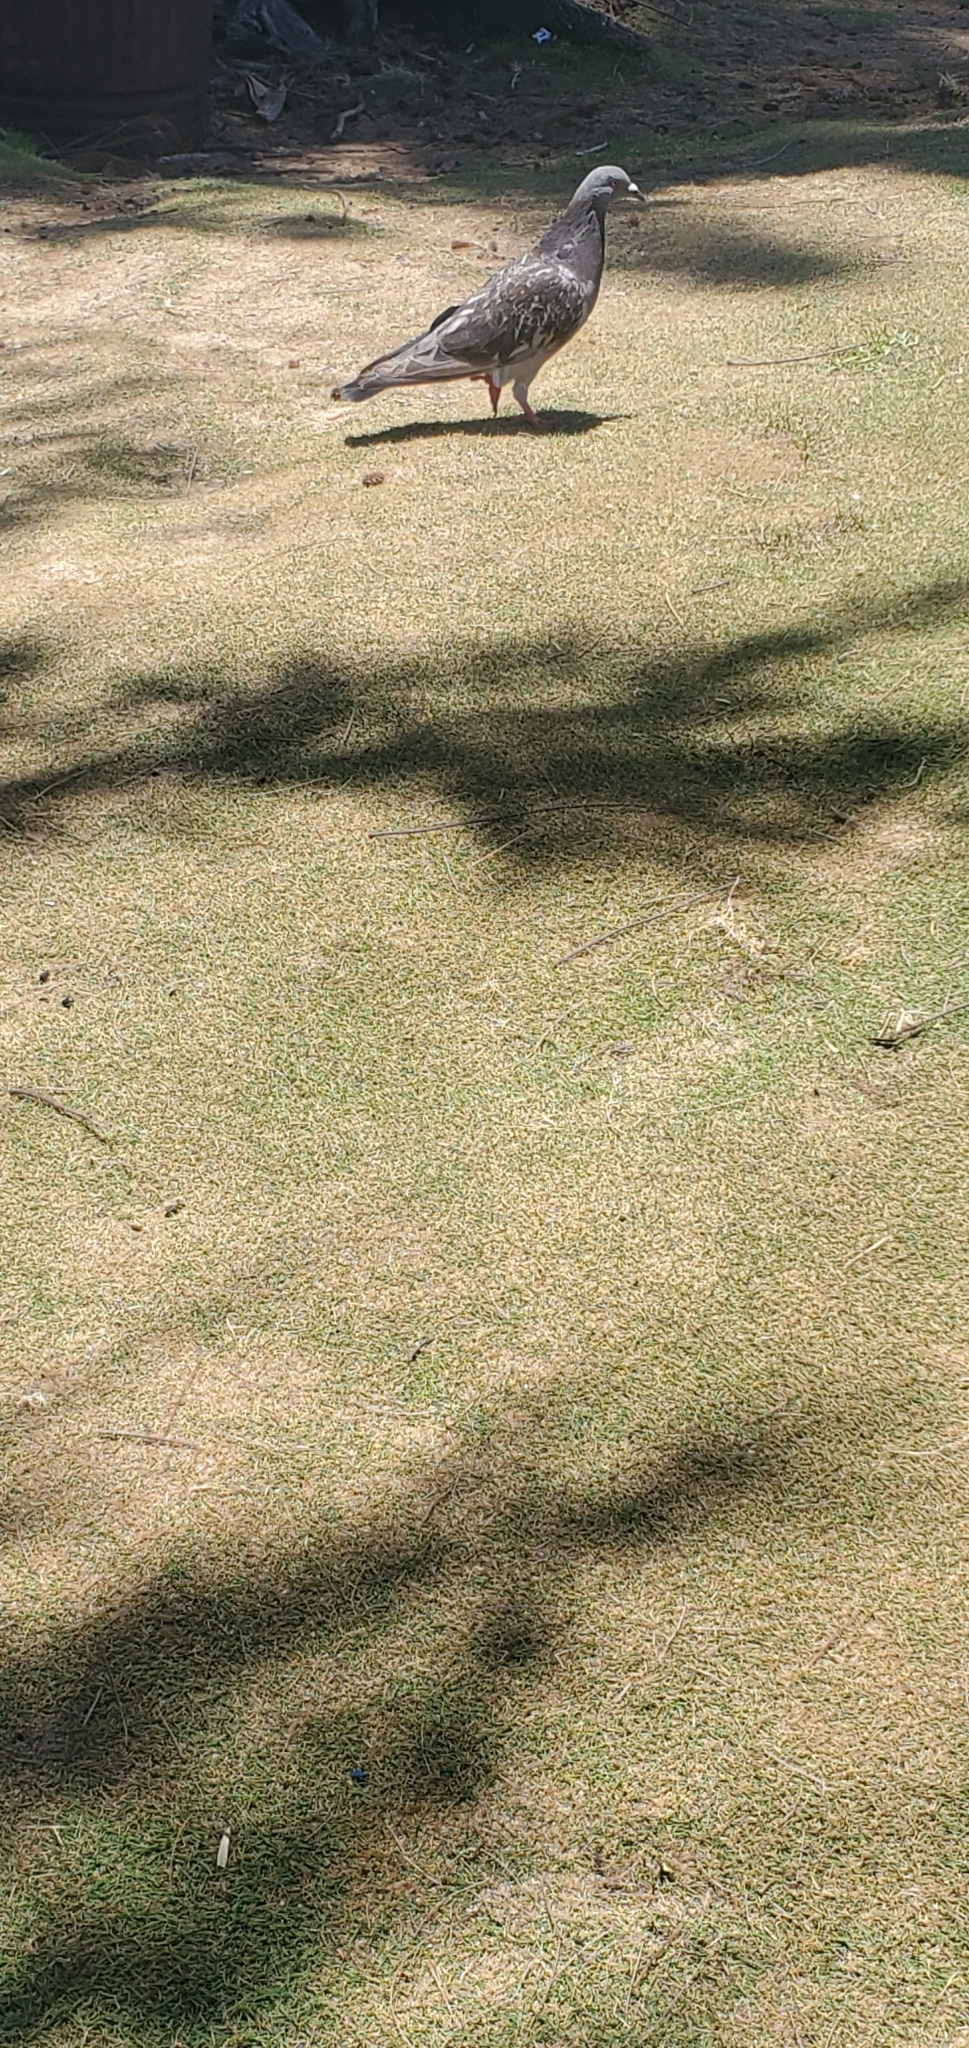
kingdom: Animalia
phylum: Chordata
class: Aves
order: Columbiformes
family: Columbidae
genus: Columba
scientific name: Columba livia
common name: Rock pigeon
